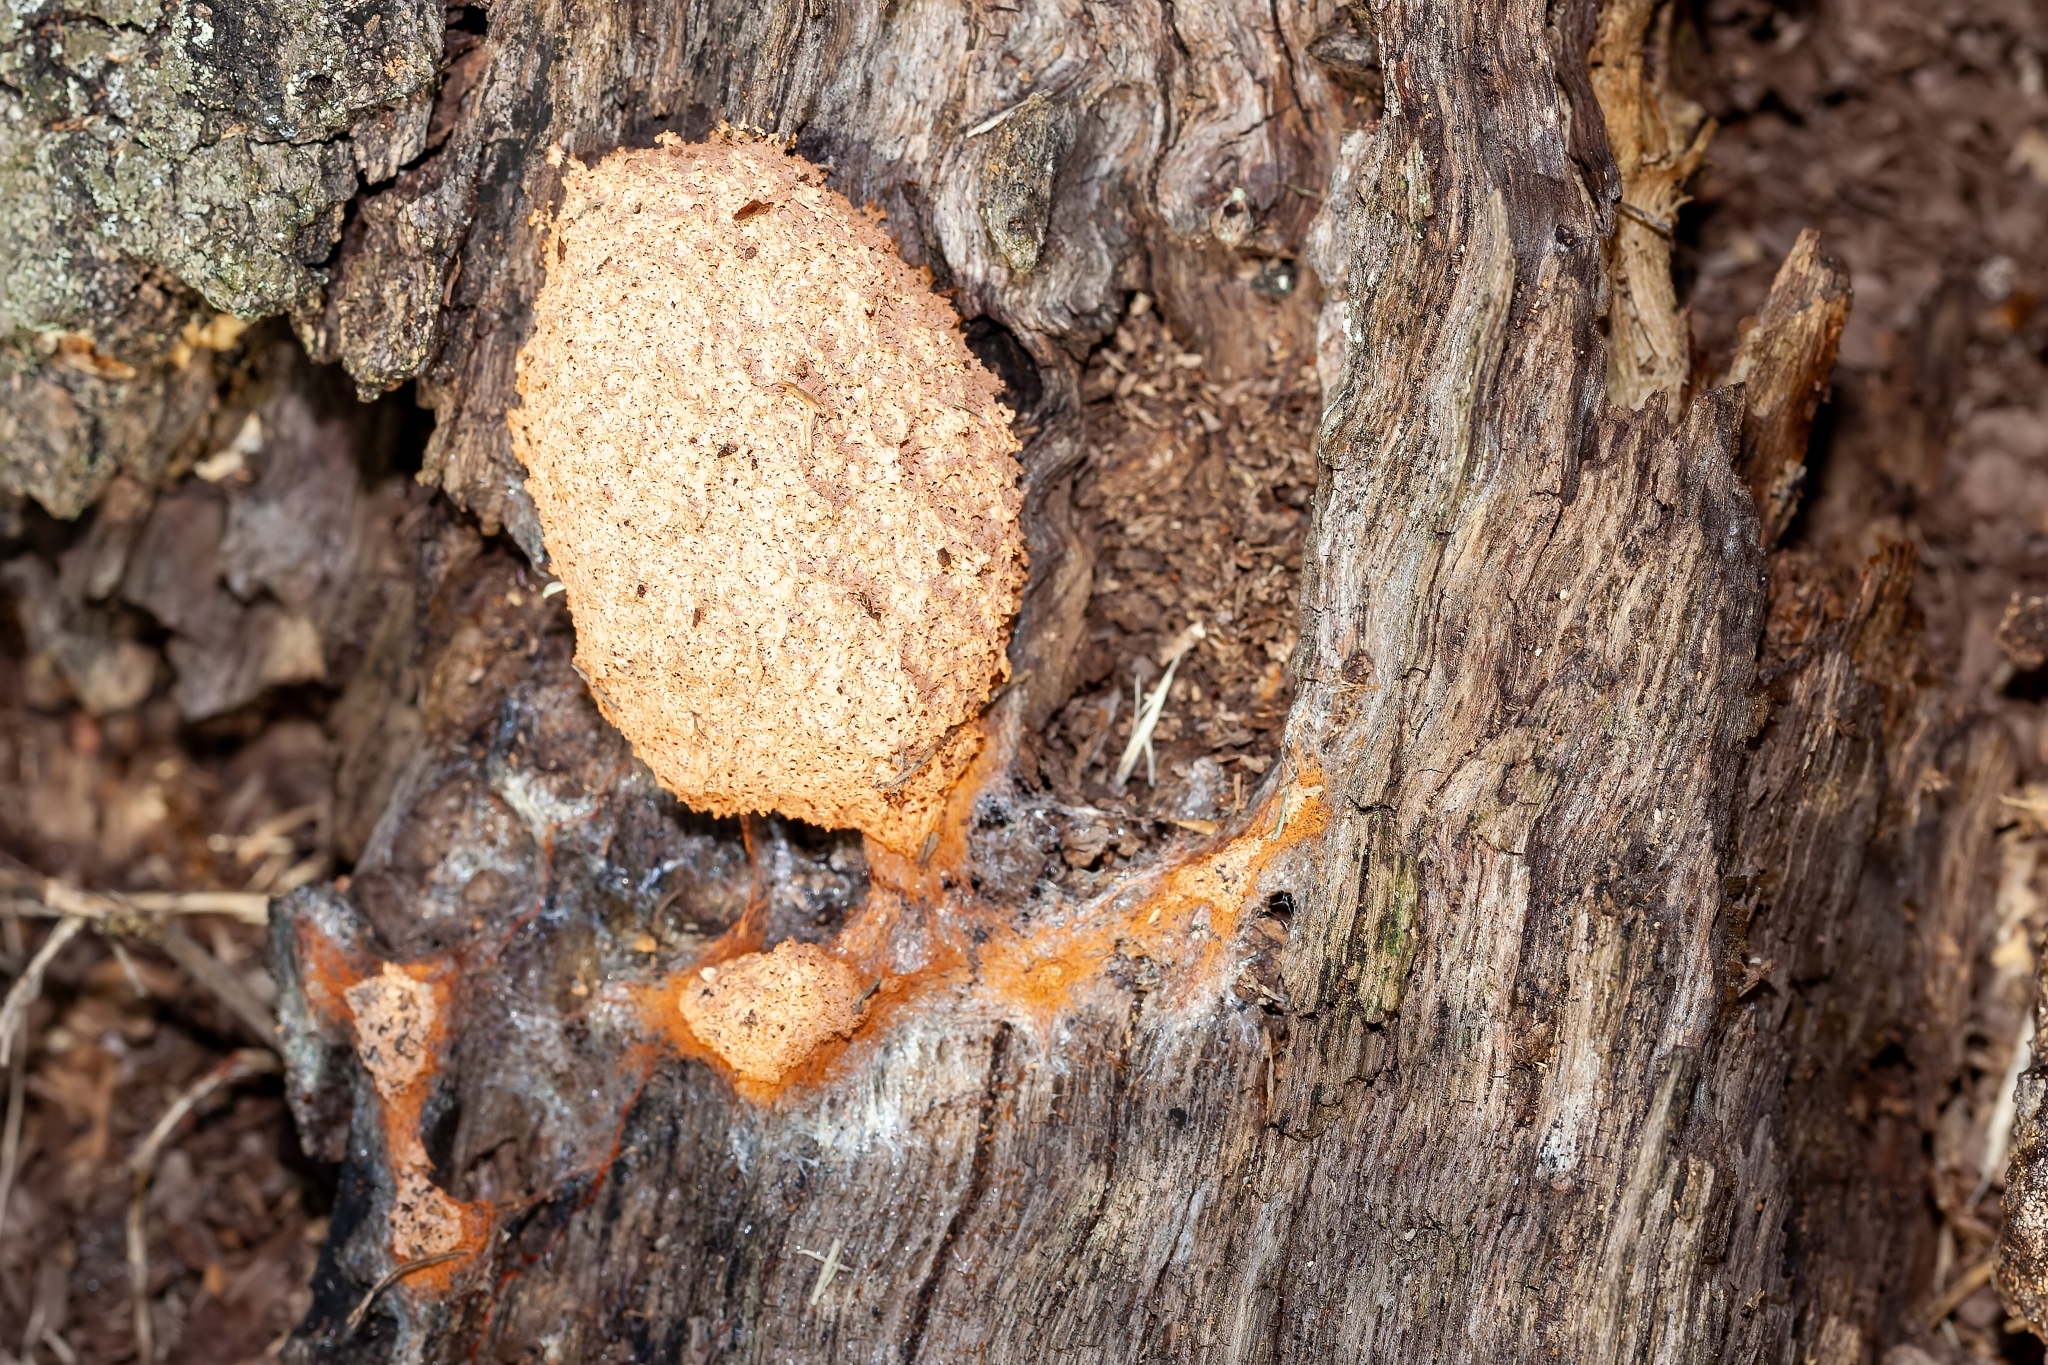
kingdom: Protozoa
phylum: Mycetozoa
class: Myxomycetes
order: Physarales
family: Physaraceae
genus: Fuligo
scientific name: Fuligo septica
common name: Dog vomit slime mold
